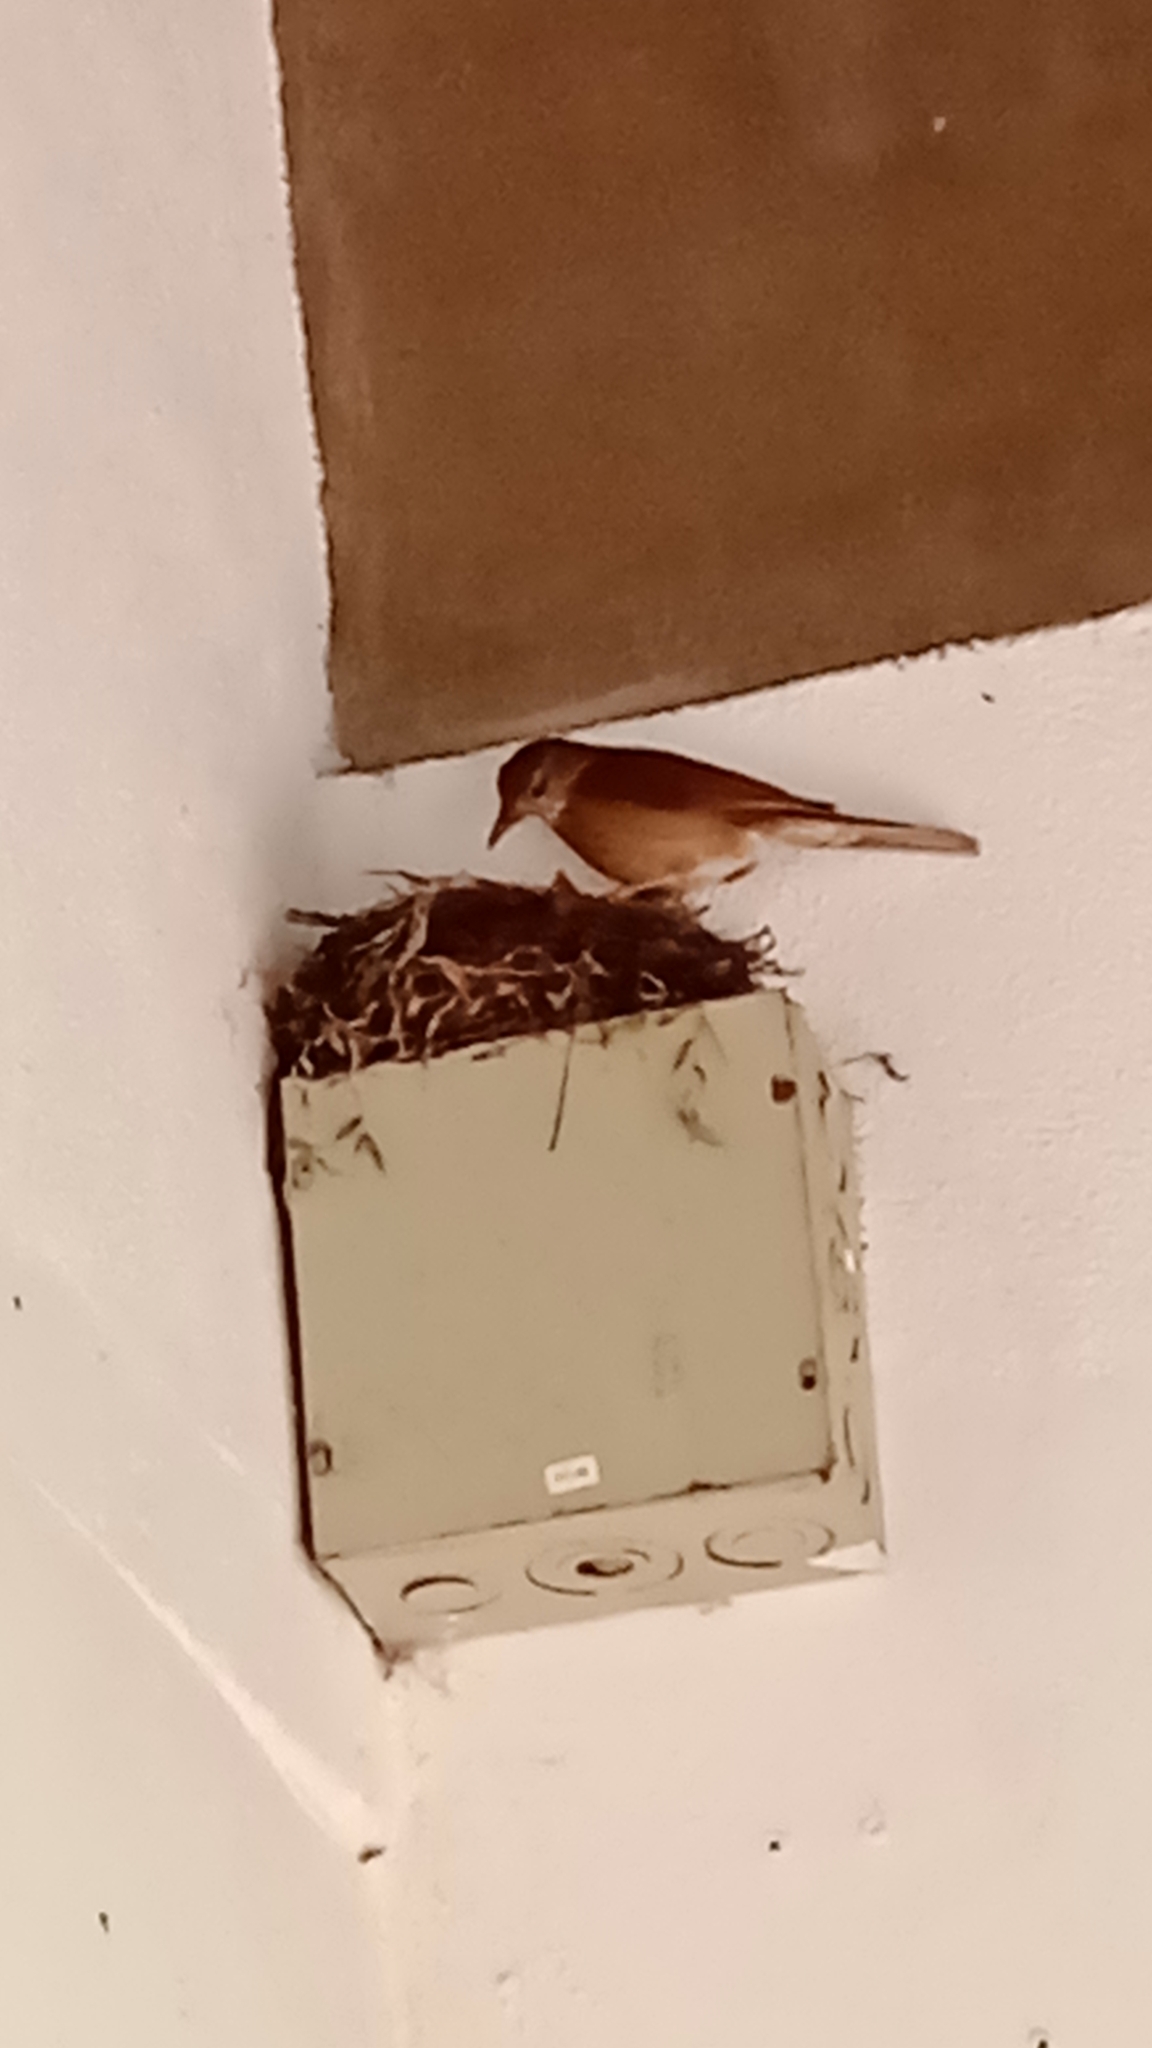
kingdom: Animalia
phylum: Chordata
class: Aves
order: Passeriformes
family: Turdidae
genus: Turdus
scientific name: Turdus leucomelas
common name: Pale-breasted thrush
